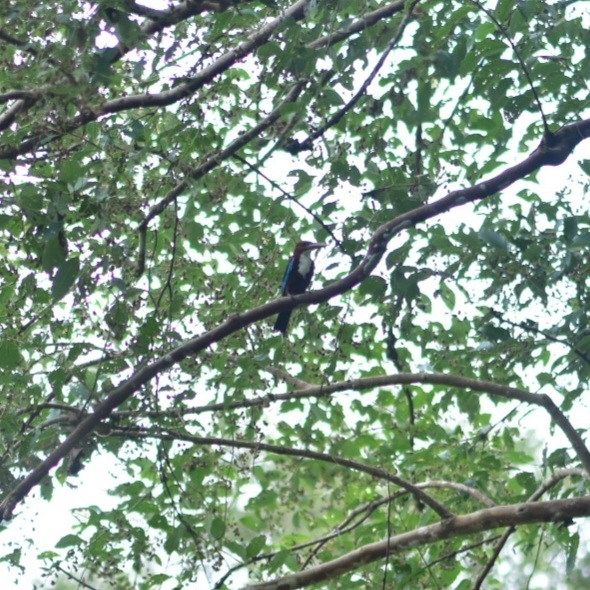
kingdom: Animalia
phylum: Chordata
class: Aves
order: Coraciiformes
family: Alcedinidae
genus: Halcyon
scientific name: Halcyon smyrnensis
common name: White-throated kingfisher
